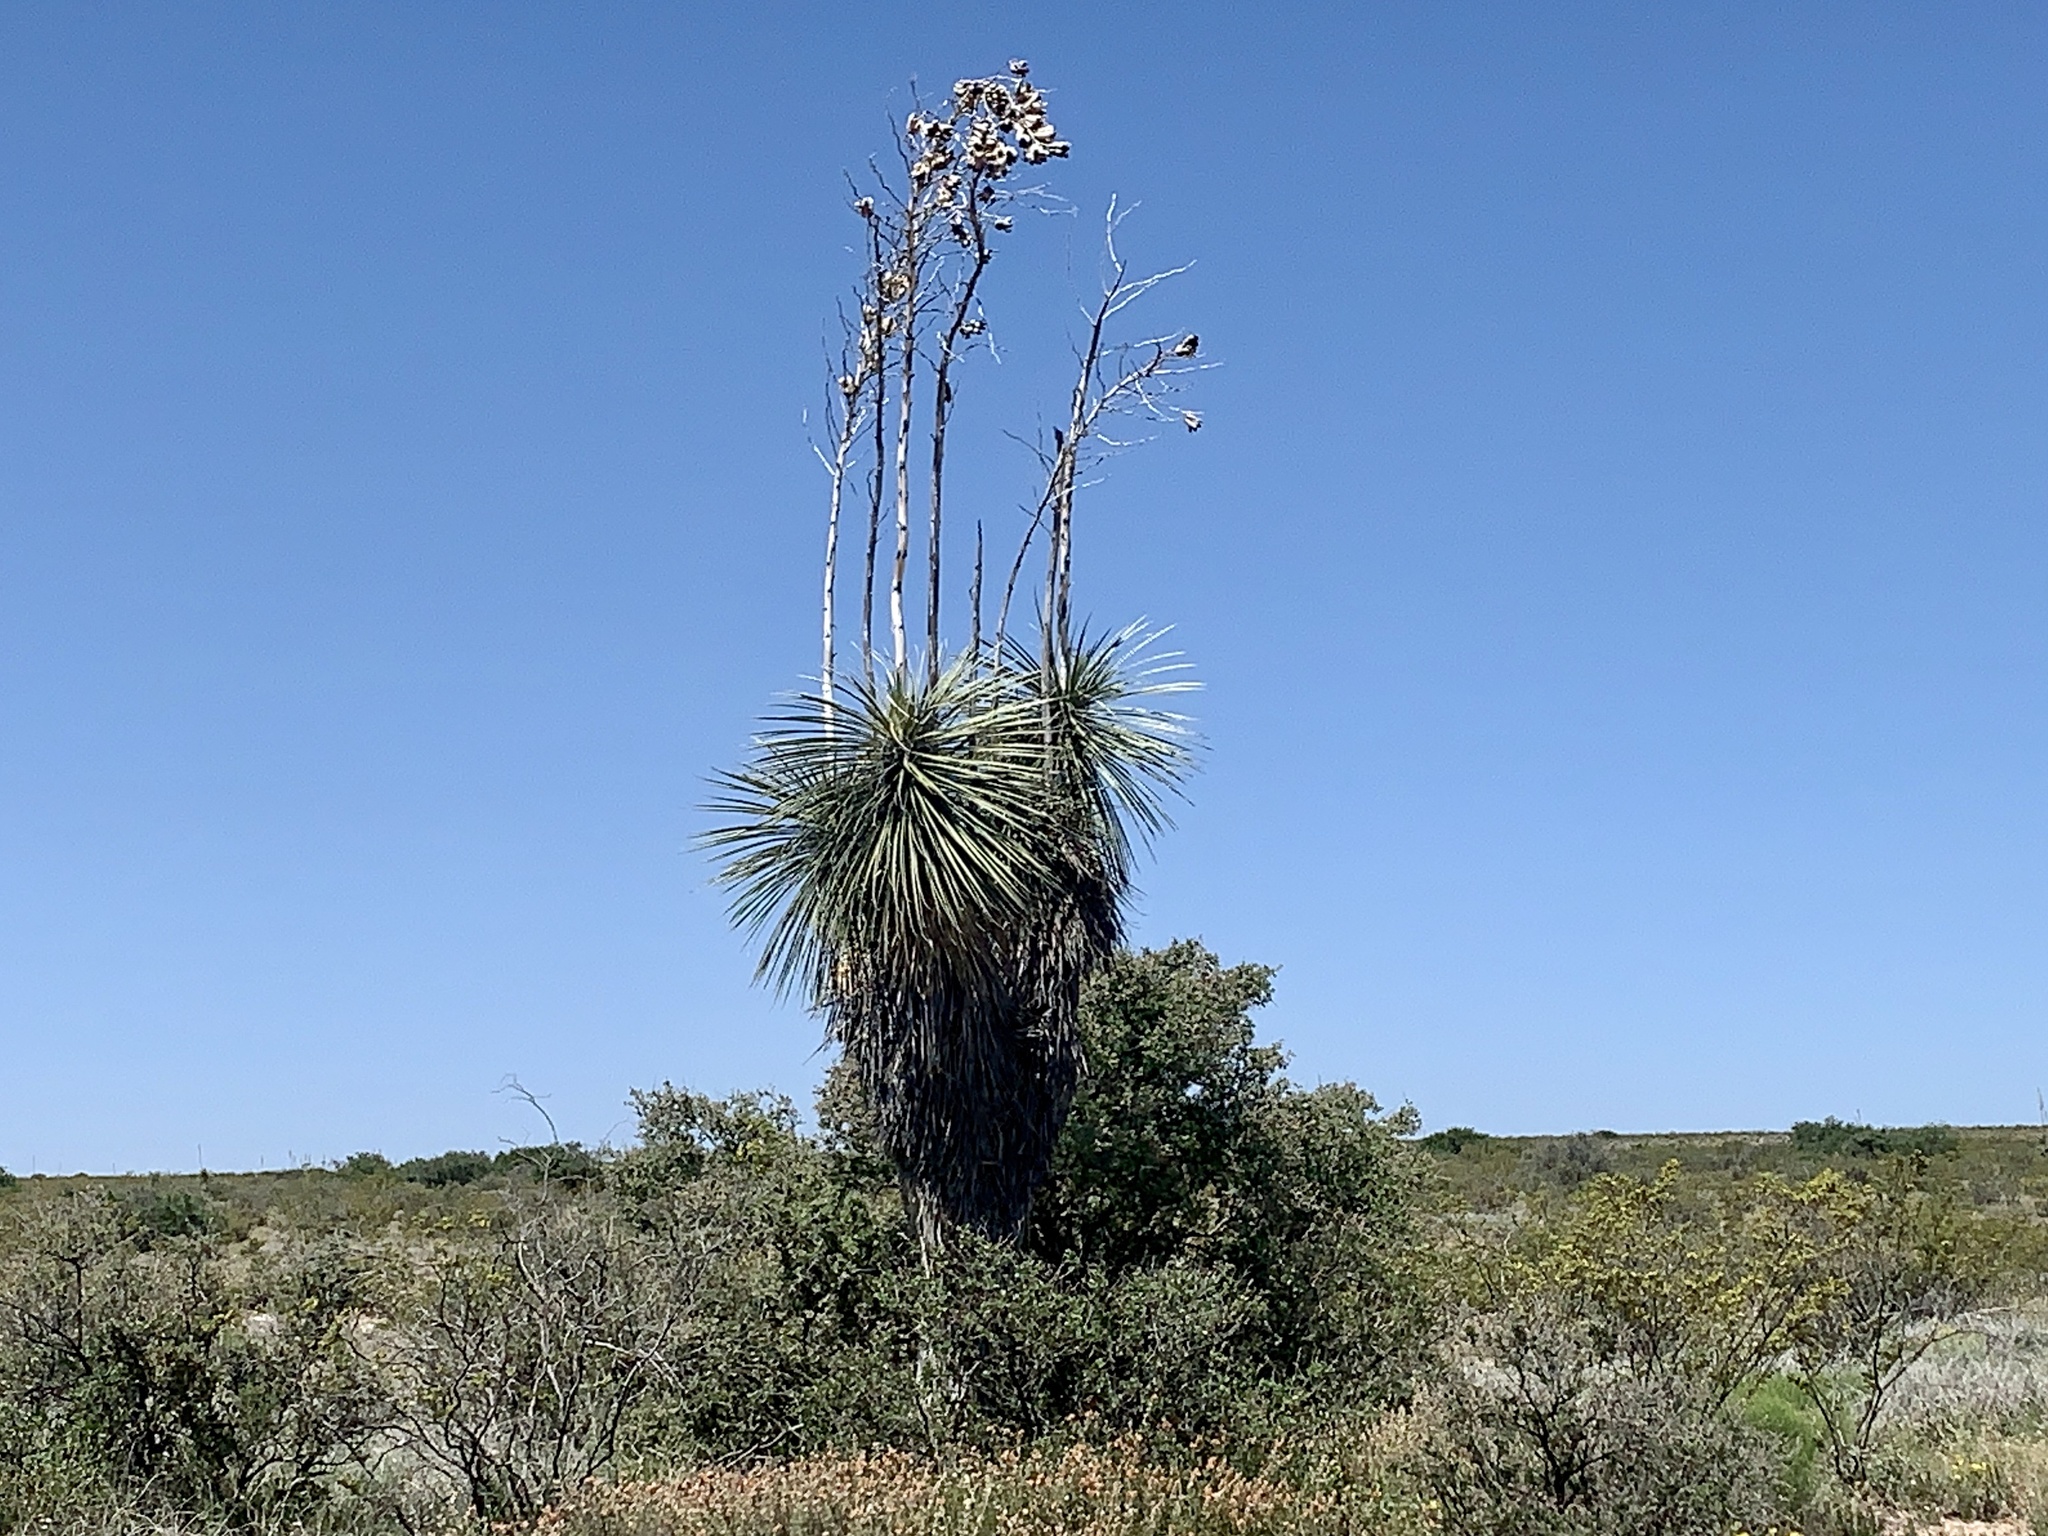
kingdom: Plantae
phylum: Tracheophyta
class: Liliopsida
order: Asparagales
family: Asparagaceae
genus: Yucca
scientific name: Yucca elata
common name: Palmella
